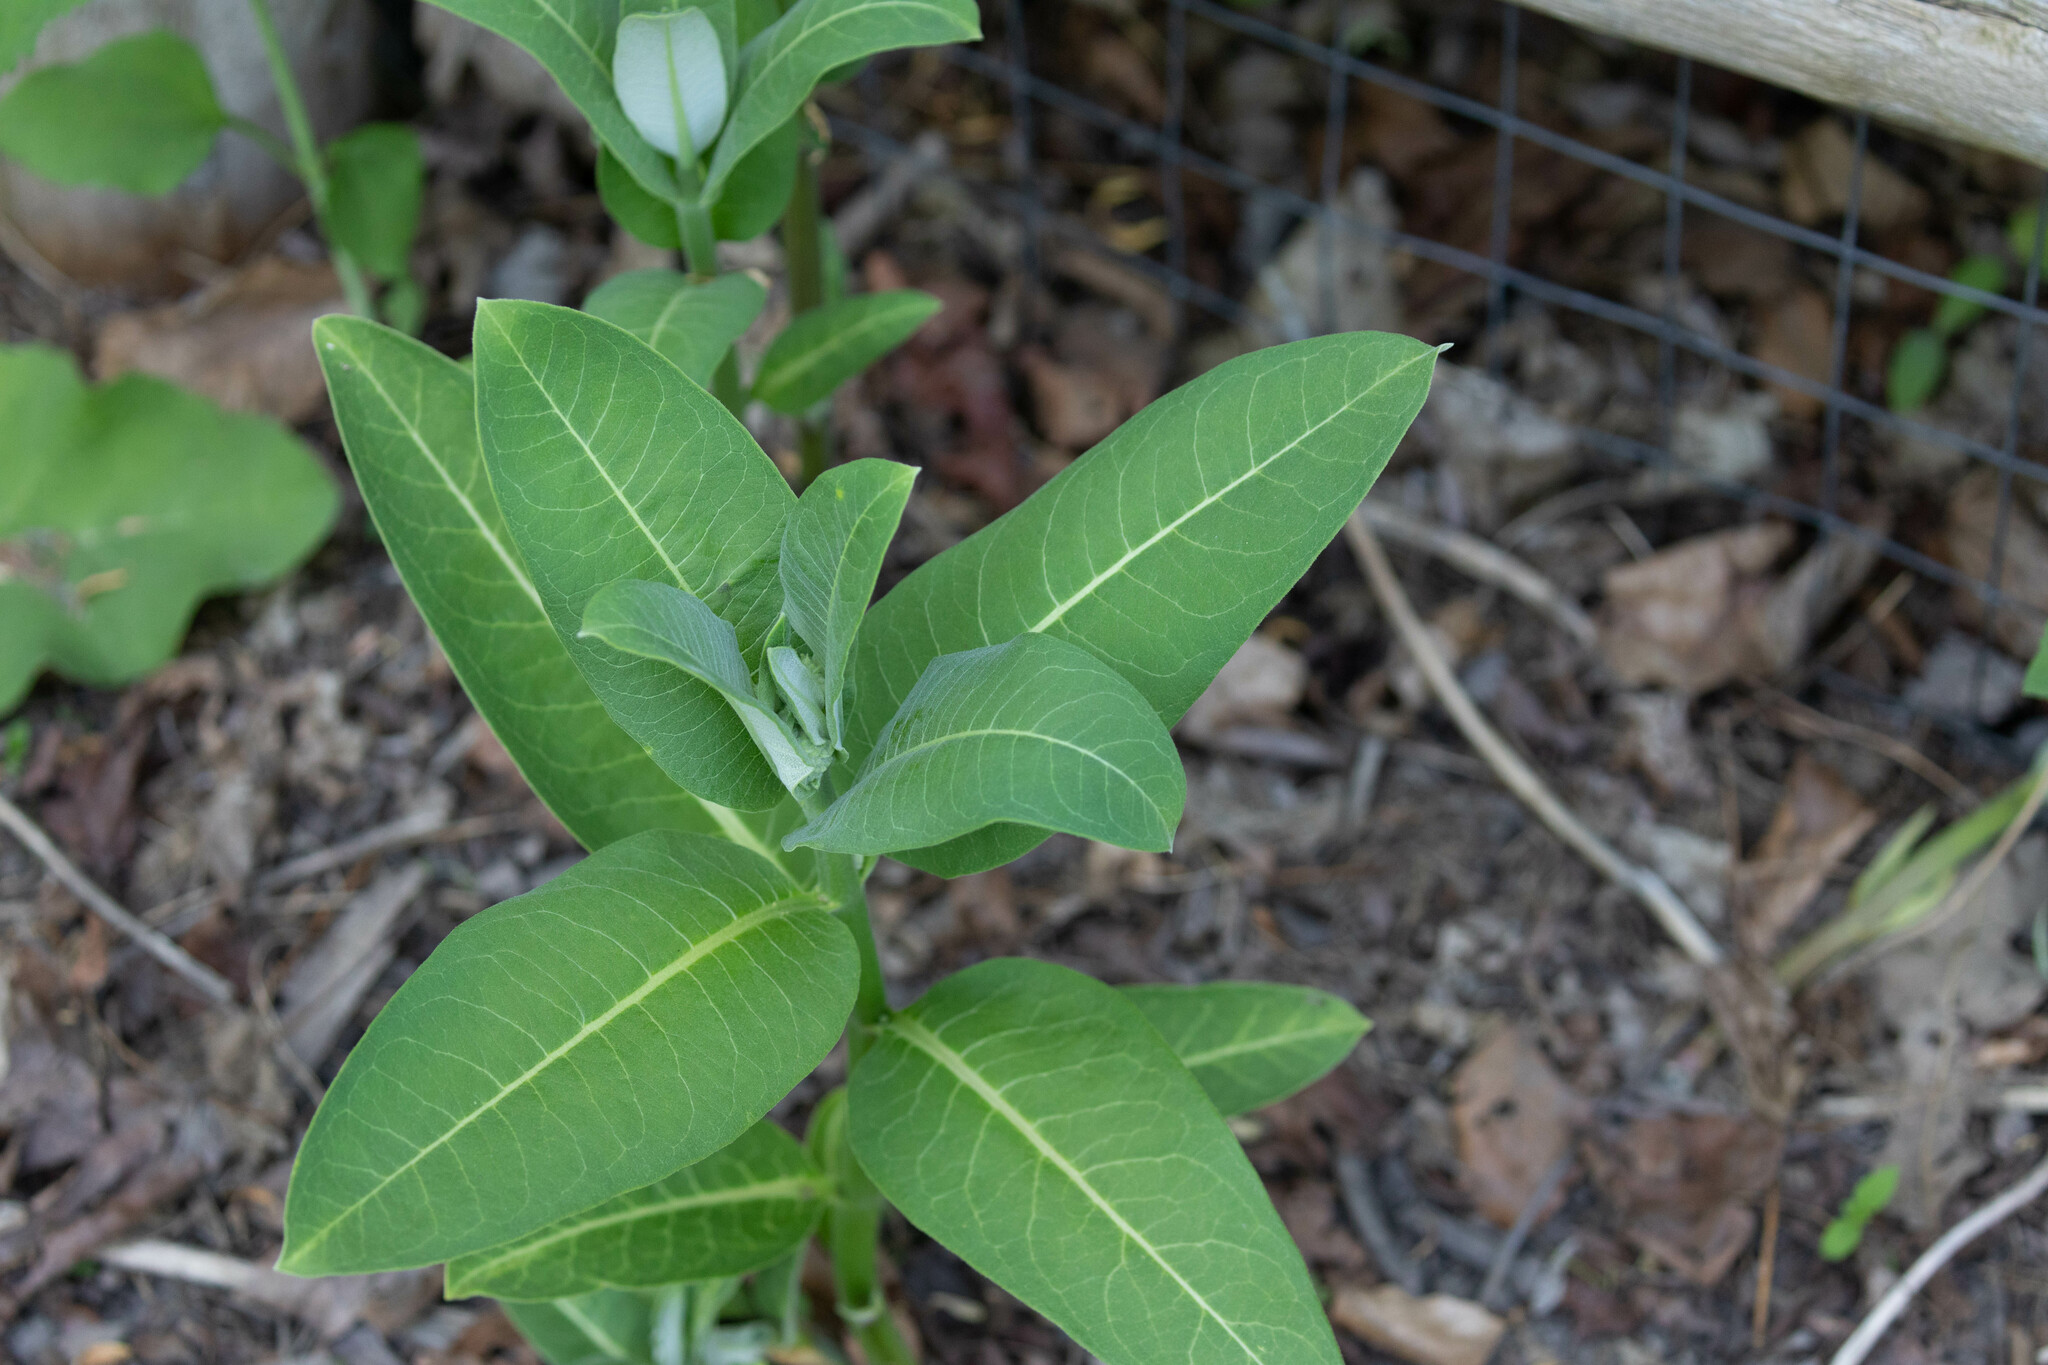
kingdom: Plantae
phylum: Tracheophyta
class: Magnoliopsida
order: Gentianales
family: Apocynaceae
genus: Asclepias
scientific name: Asclepias syriaca
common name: Common milkweed
